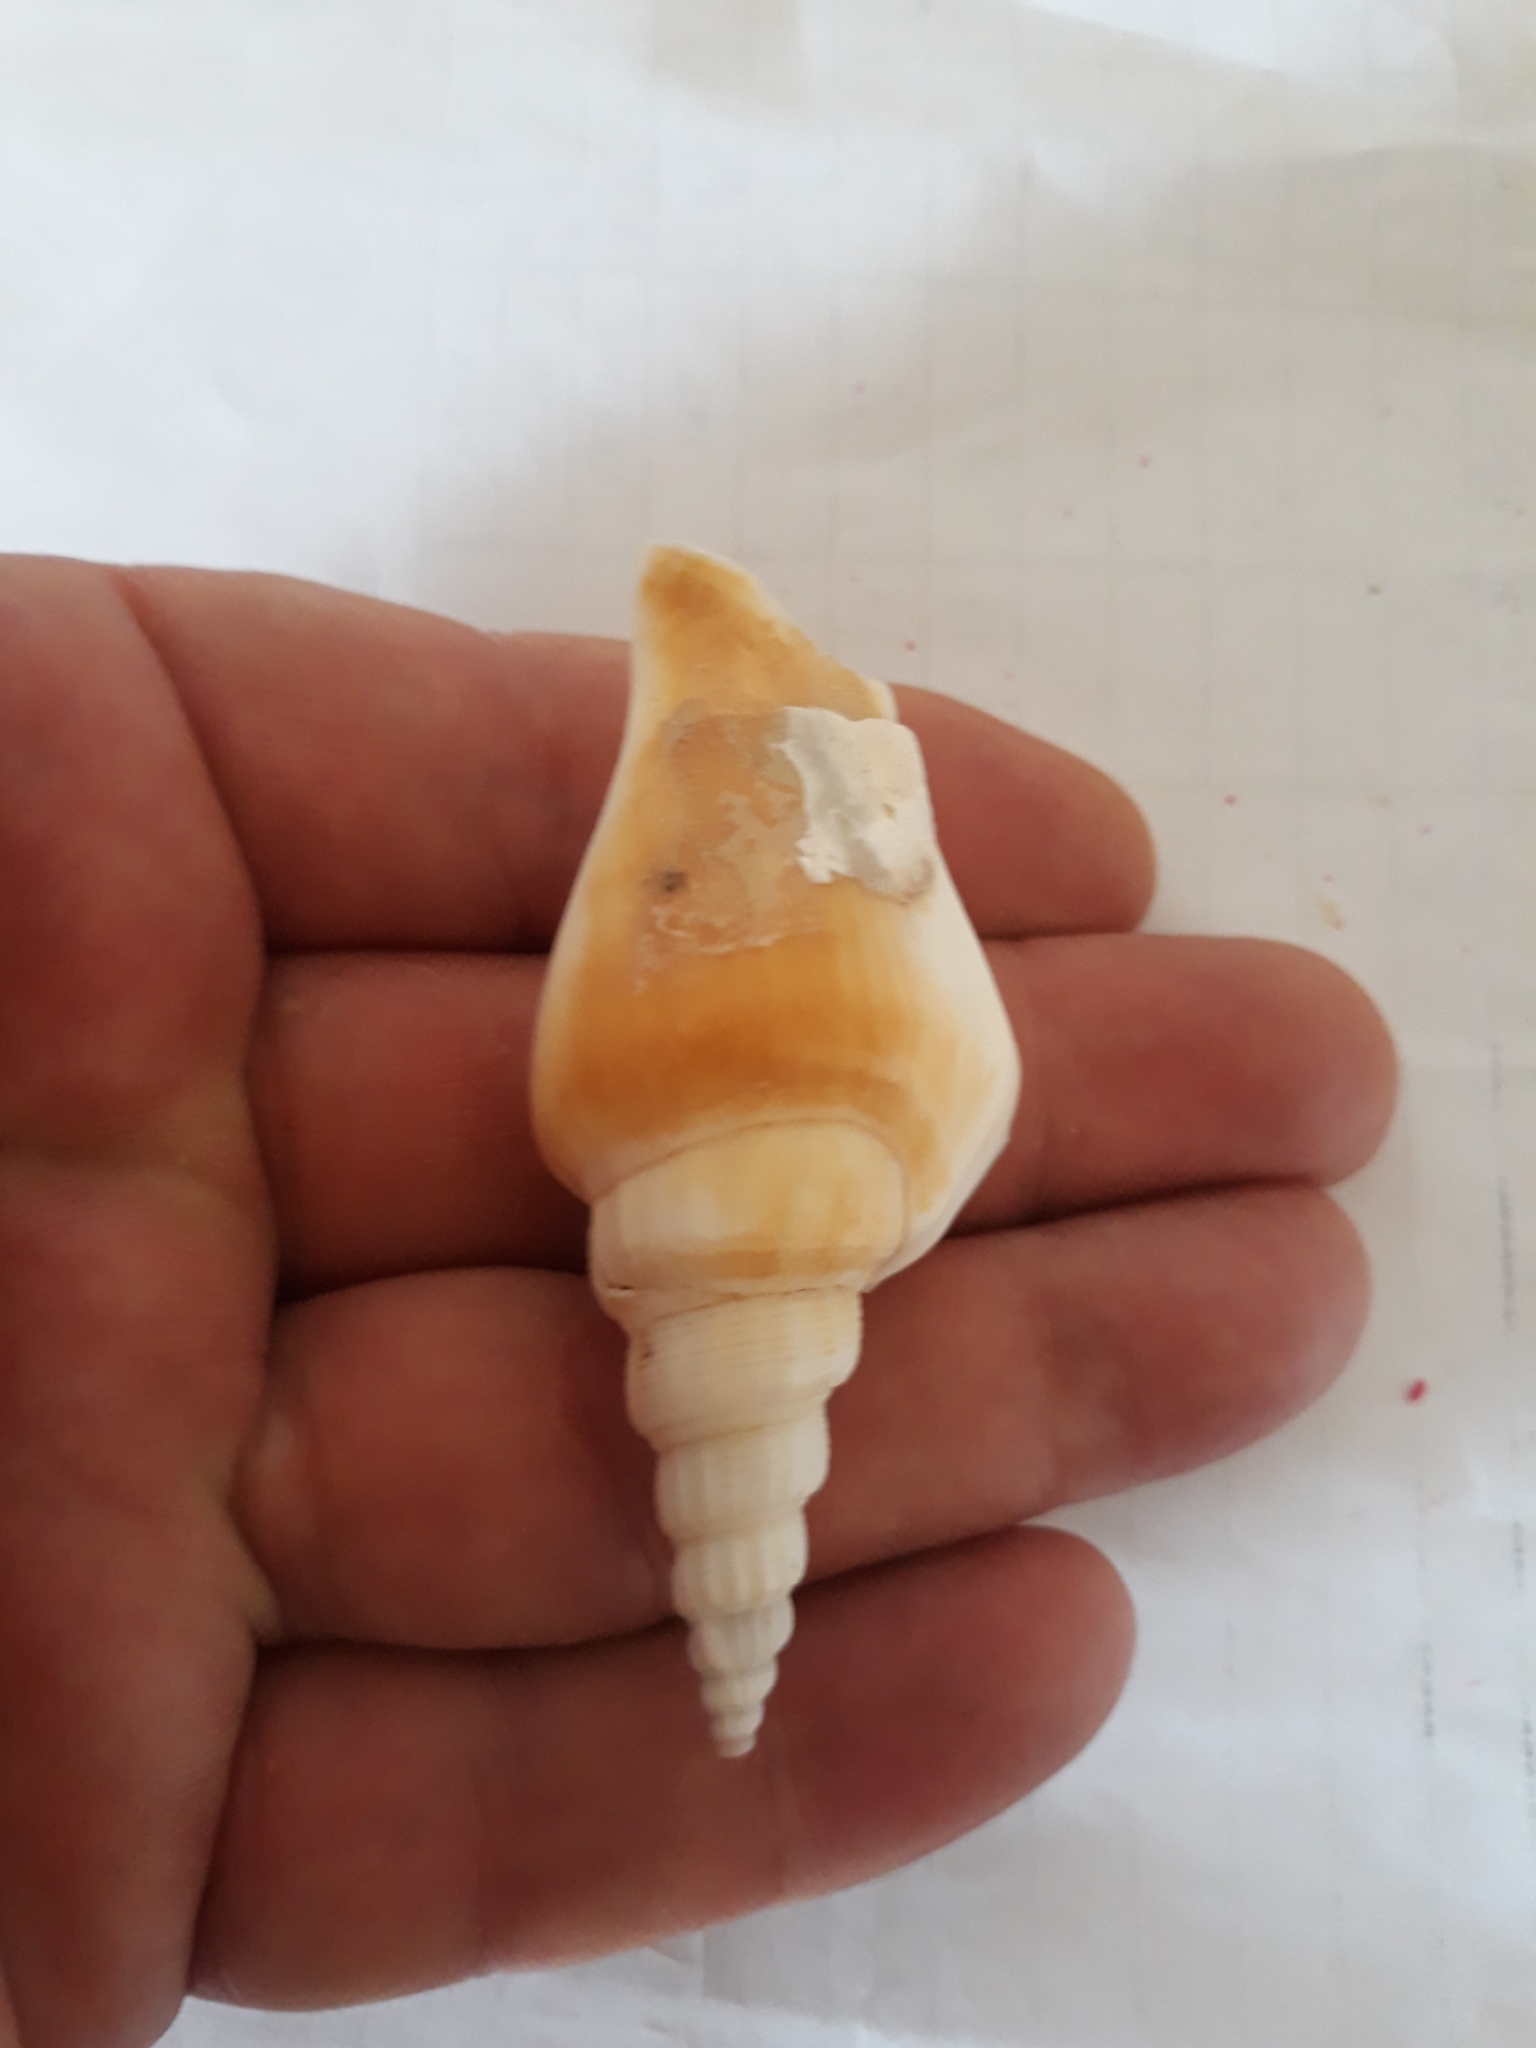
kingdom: Animalia
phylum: Mollusca
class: Gastropoda
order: Littorinimorpha
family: Strombidae
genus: Doxander
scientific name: Doxander vittatus
